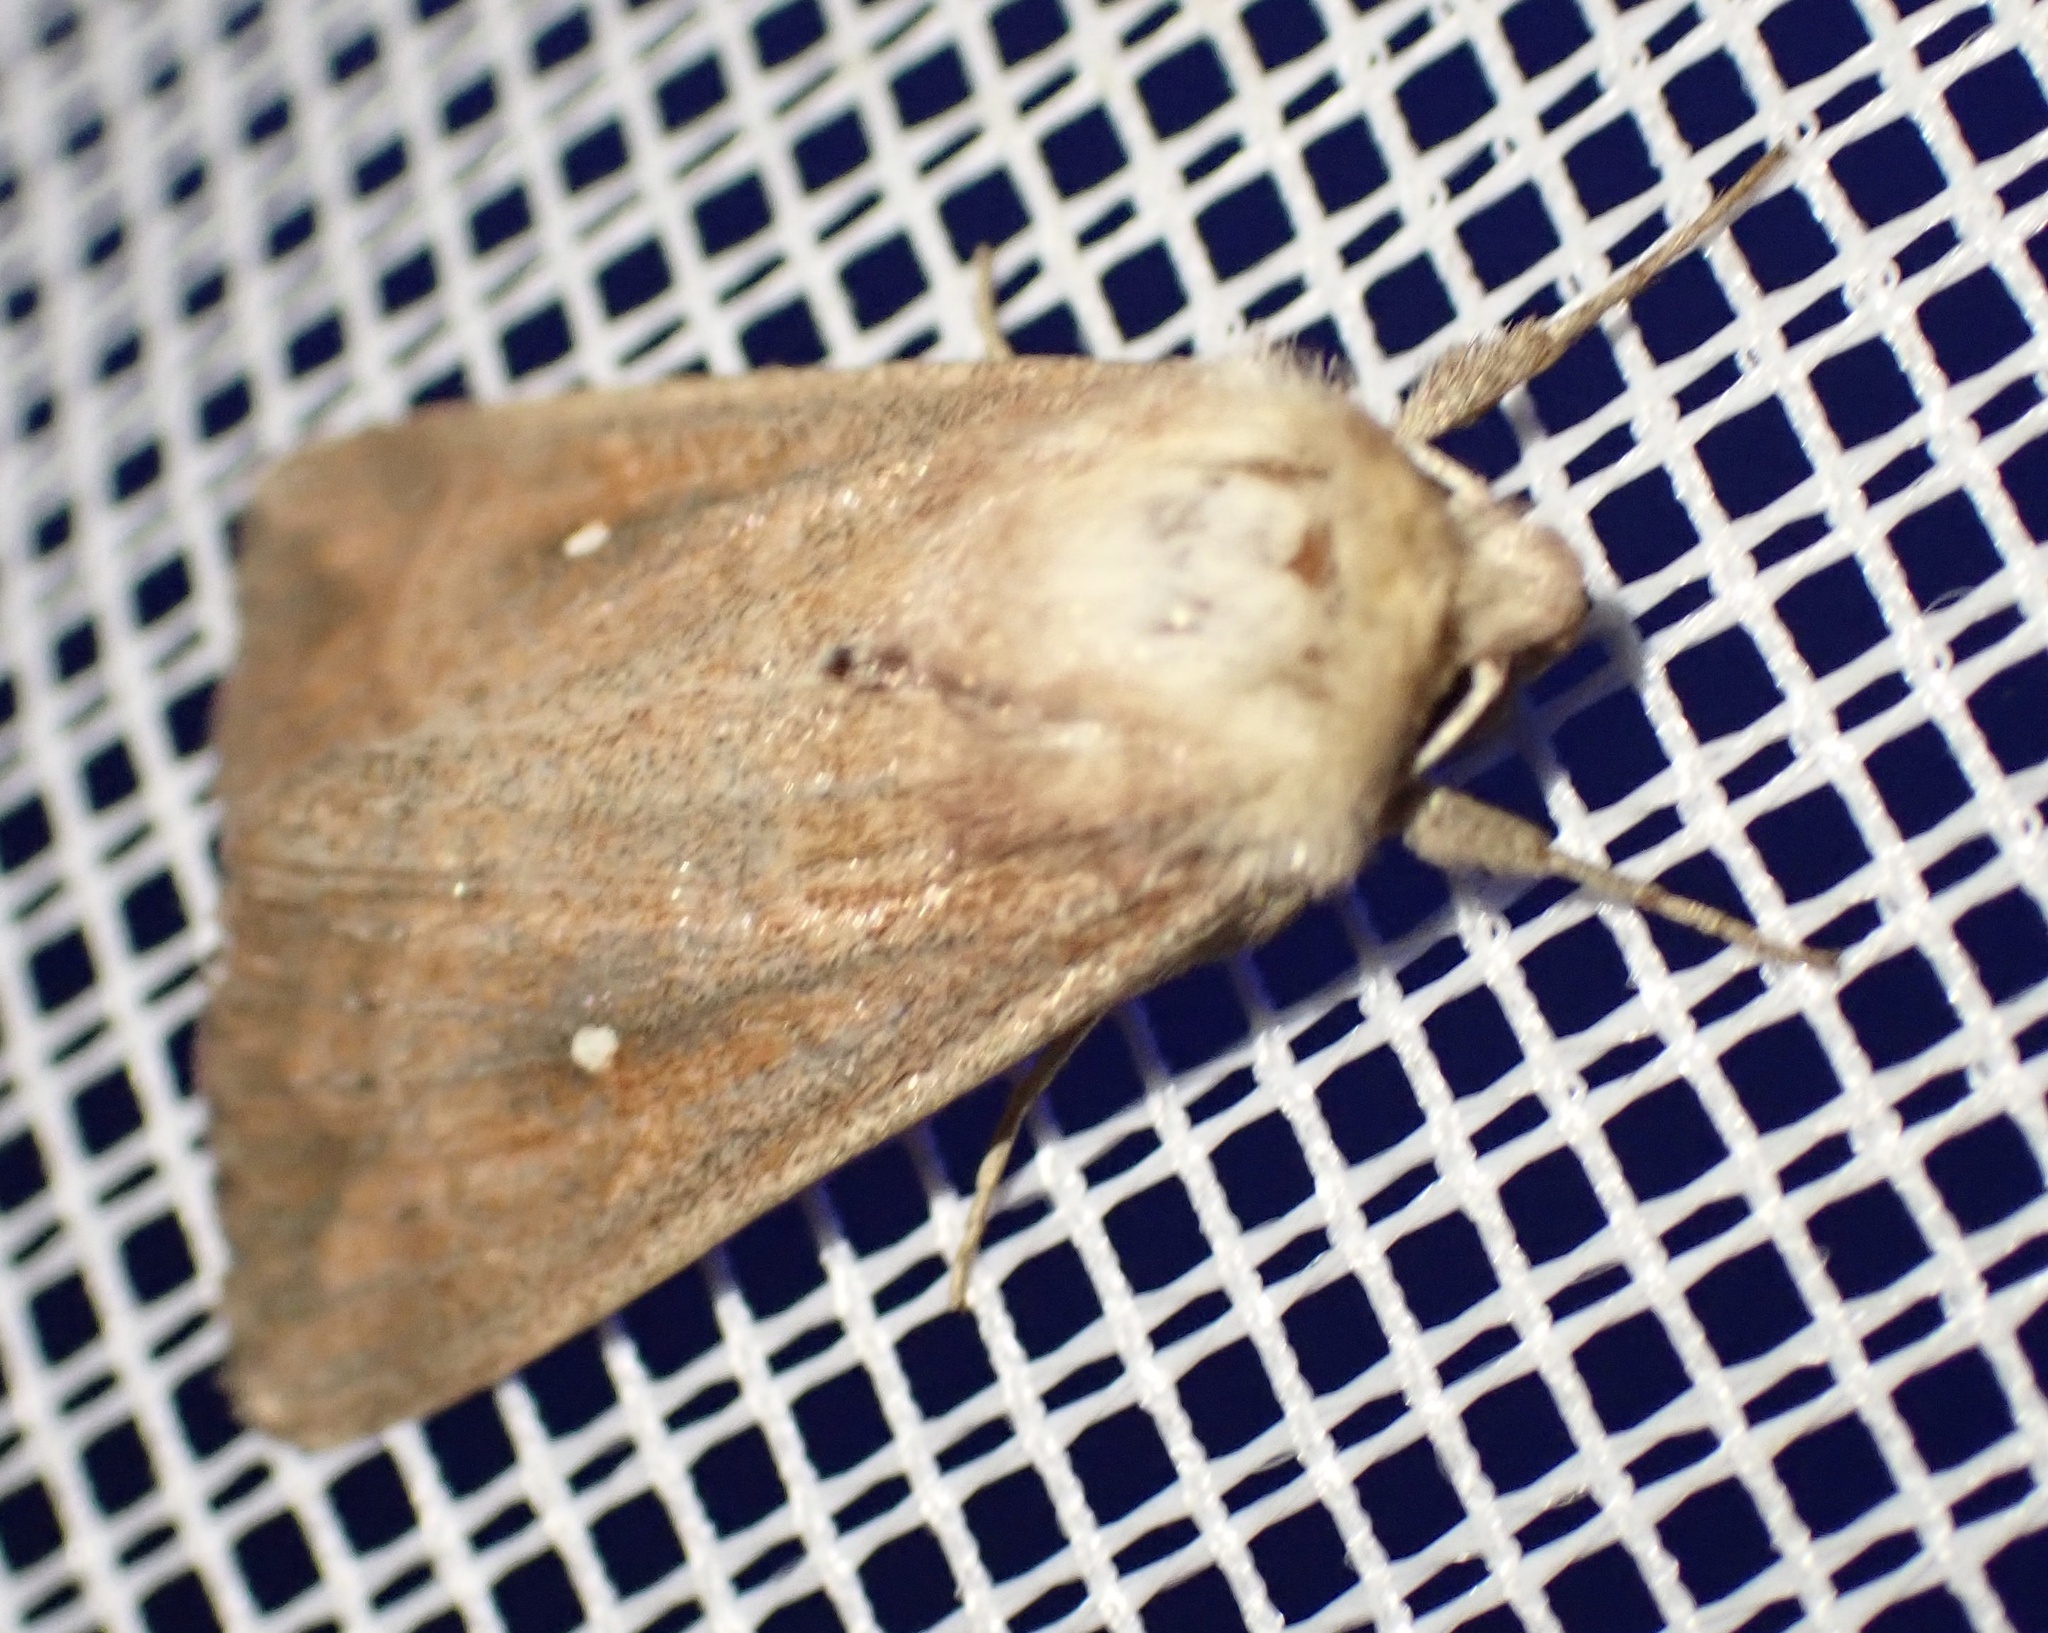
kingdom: Animalia
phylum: Arthropoda
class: Insecta
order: Lepidoptera
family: Noctuidae
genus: Mythimna
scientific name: Mythimna albipuncta
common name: White-point
